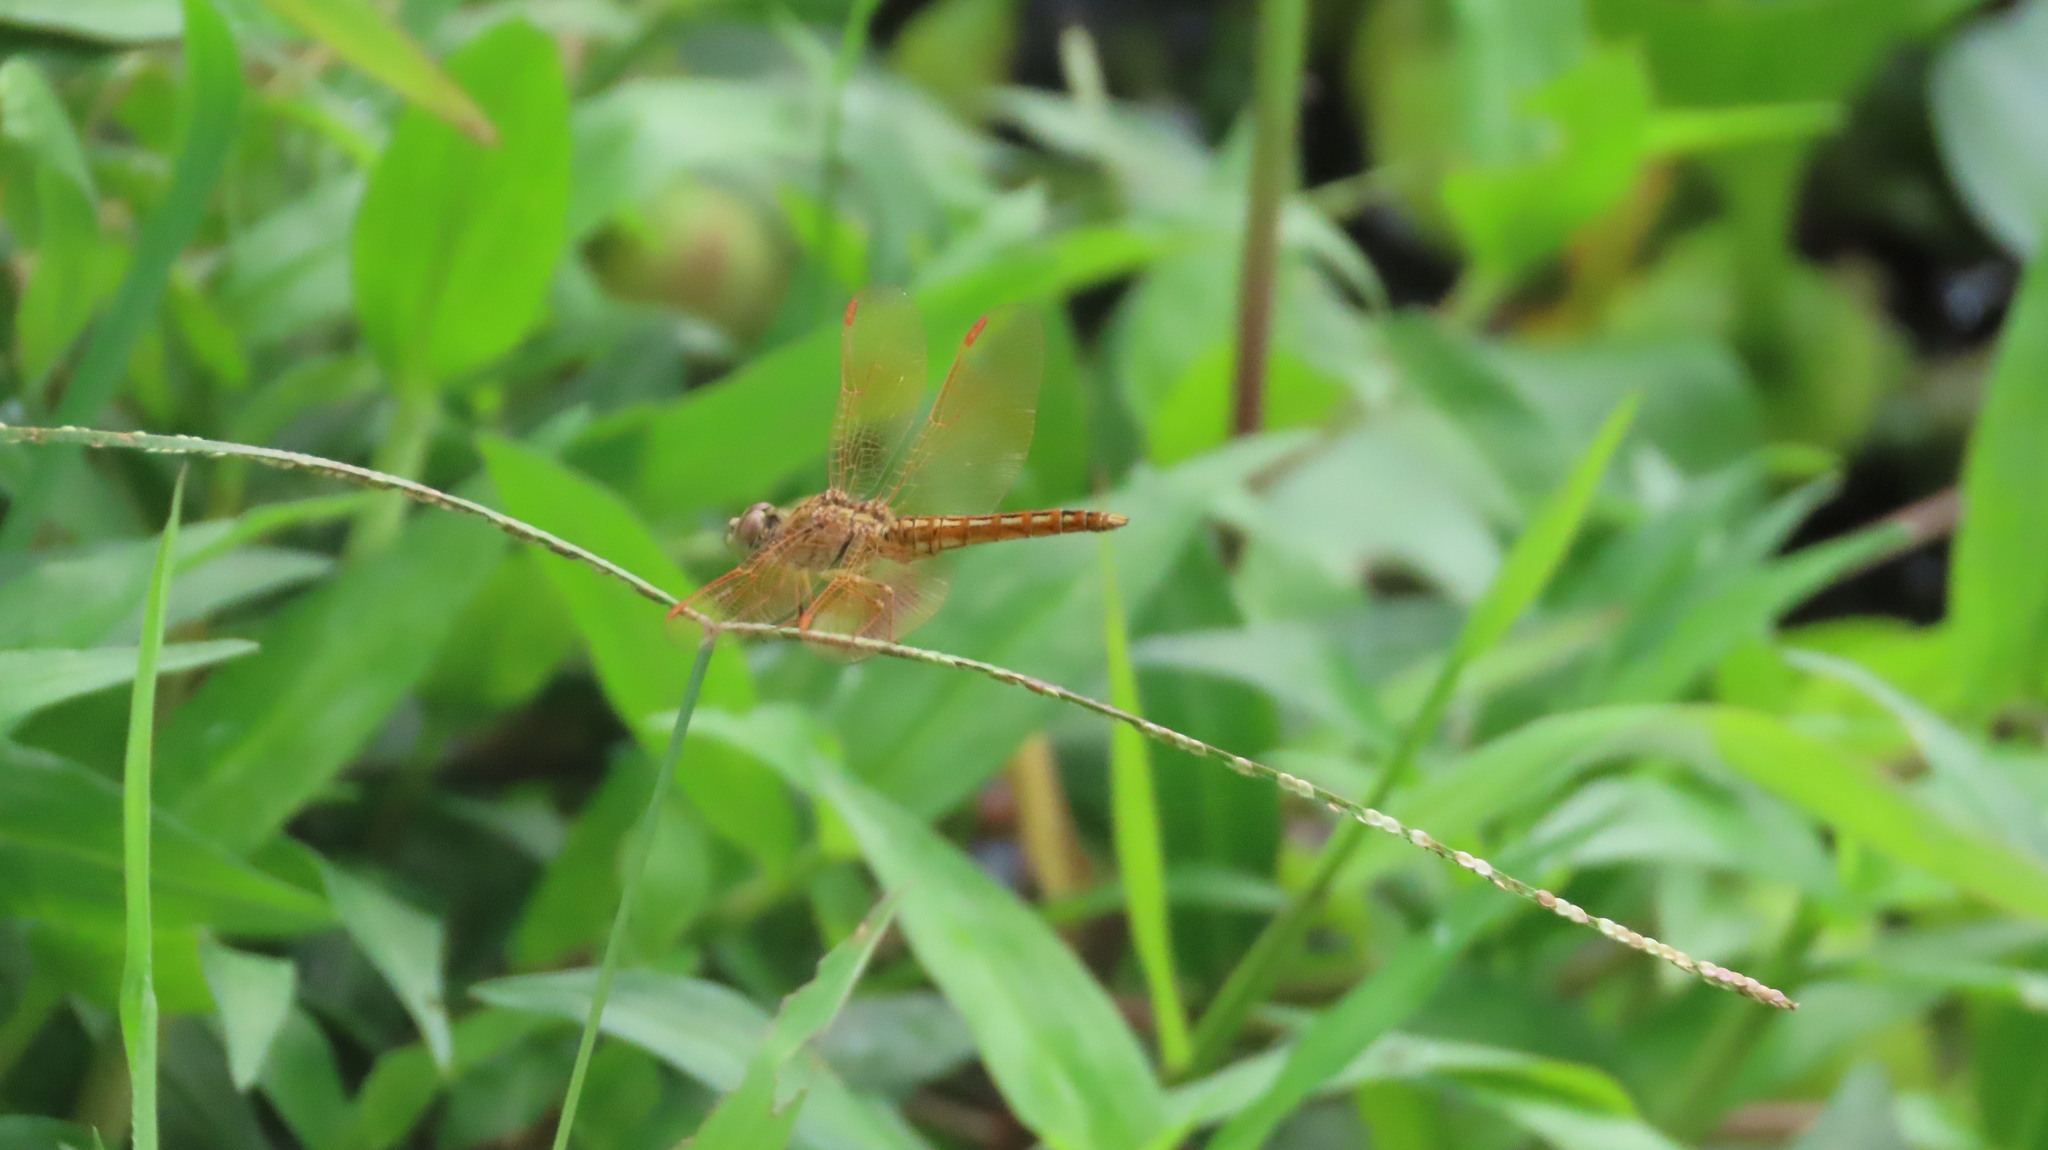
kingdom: Animalia
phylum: Arthropoda
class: Insecta
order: Odonata
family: Libellulidae
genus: Brachythemis
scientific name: Brachythemis contaminata
